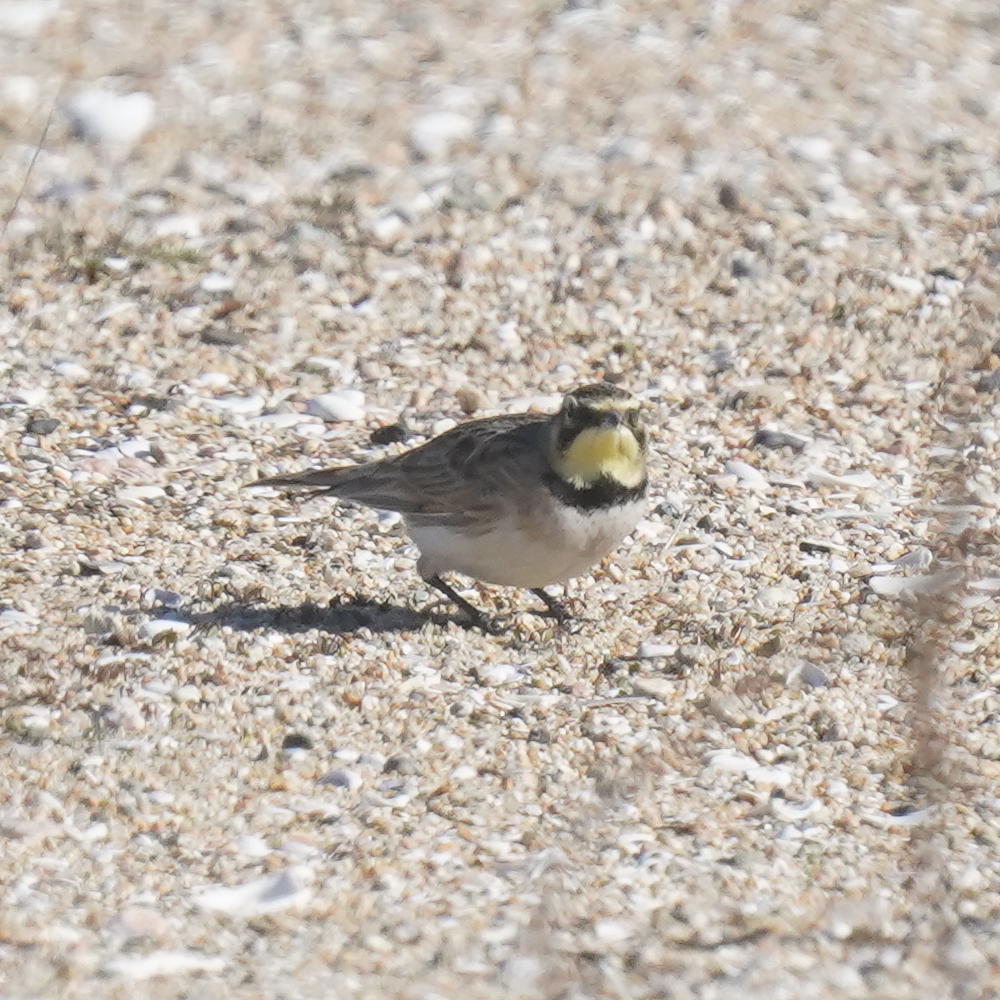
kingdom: Animalia
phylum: Chordata
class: Aves
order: Passeriformes
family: Alaudidae
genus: Eremophila
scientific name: Eremophila alpestris
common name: Horned lark
